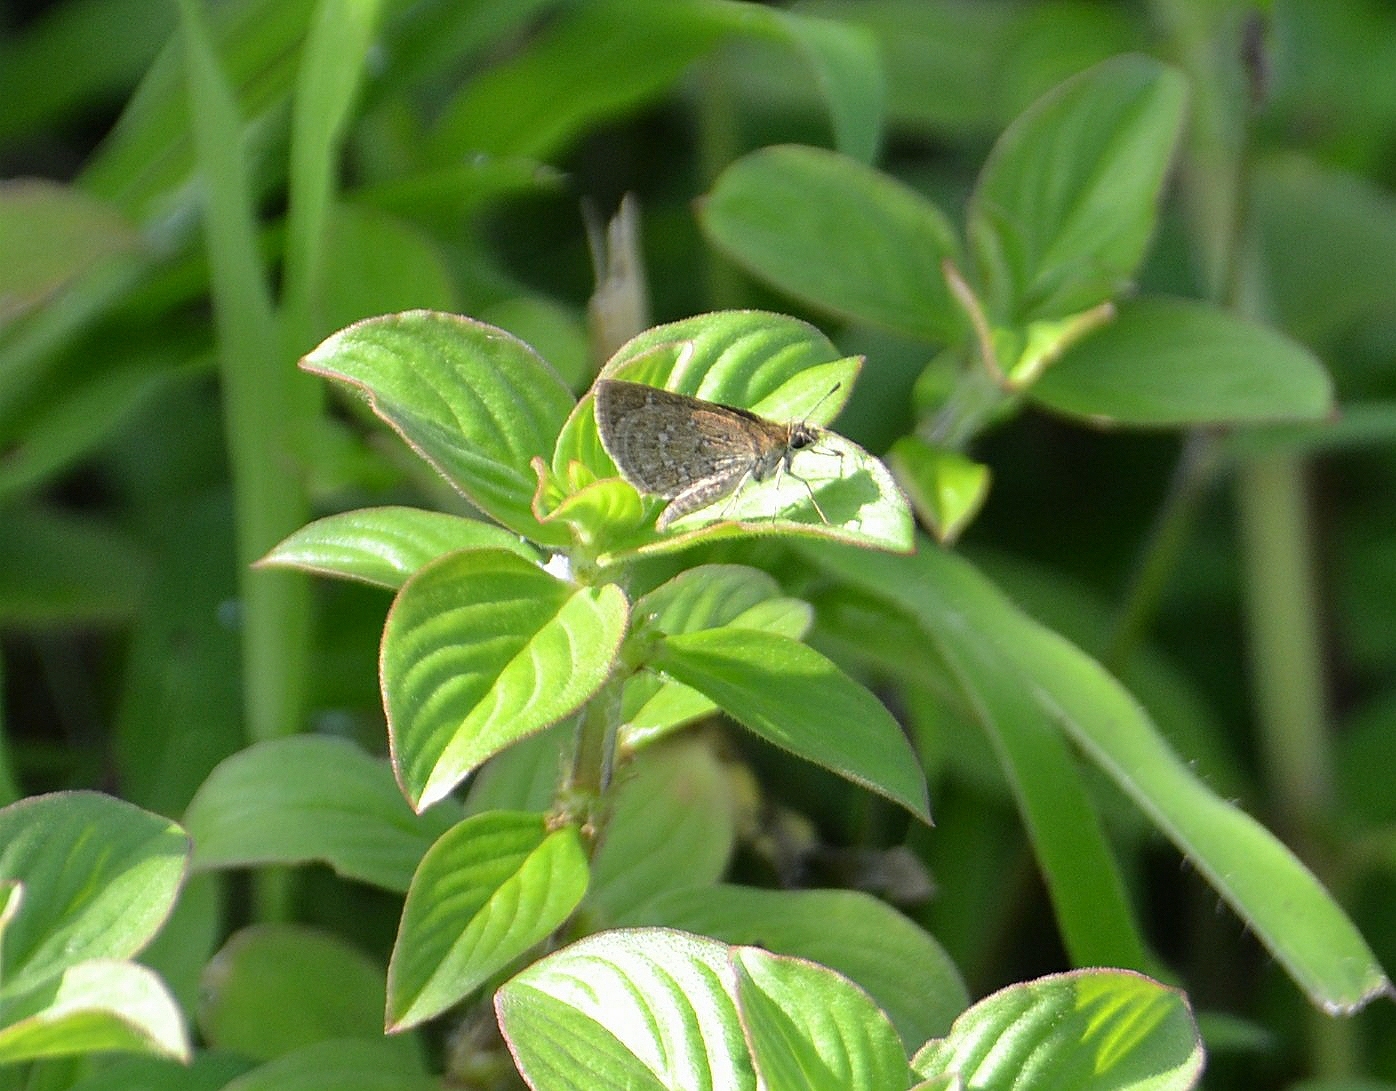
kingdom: Animalia
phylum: Arthropoda
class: Insecta
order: Lepidoptera
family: Hesperiidae
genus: Aeromachus
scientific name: Aeromachus pygmaeus
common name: Pygmy scrub hopper
